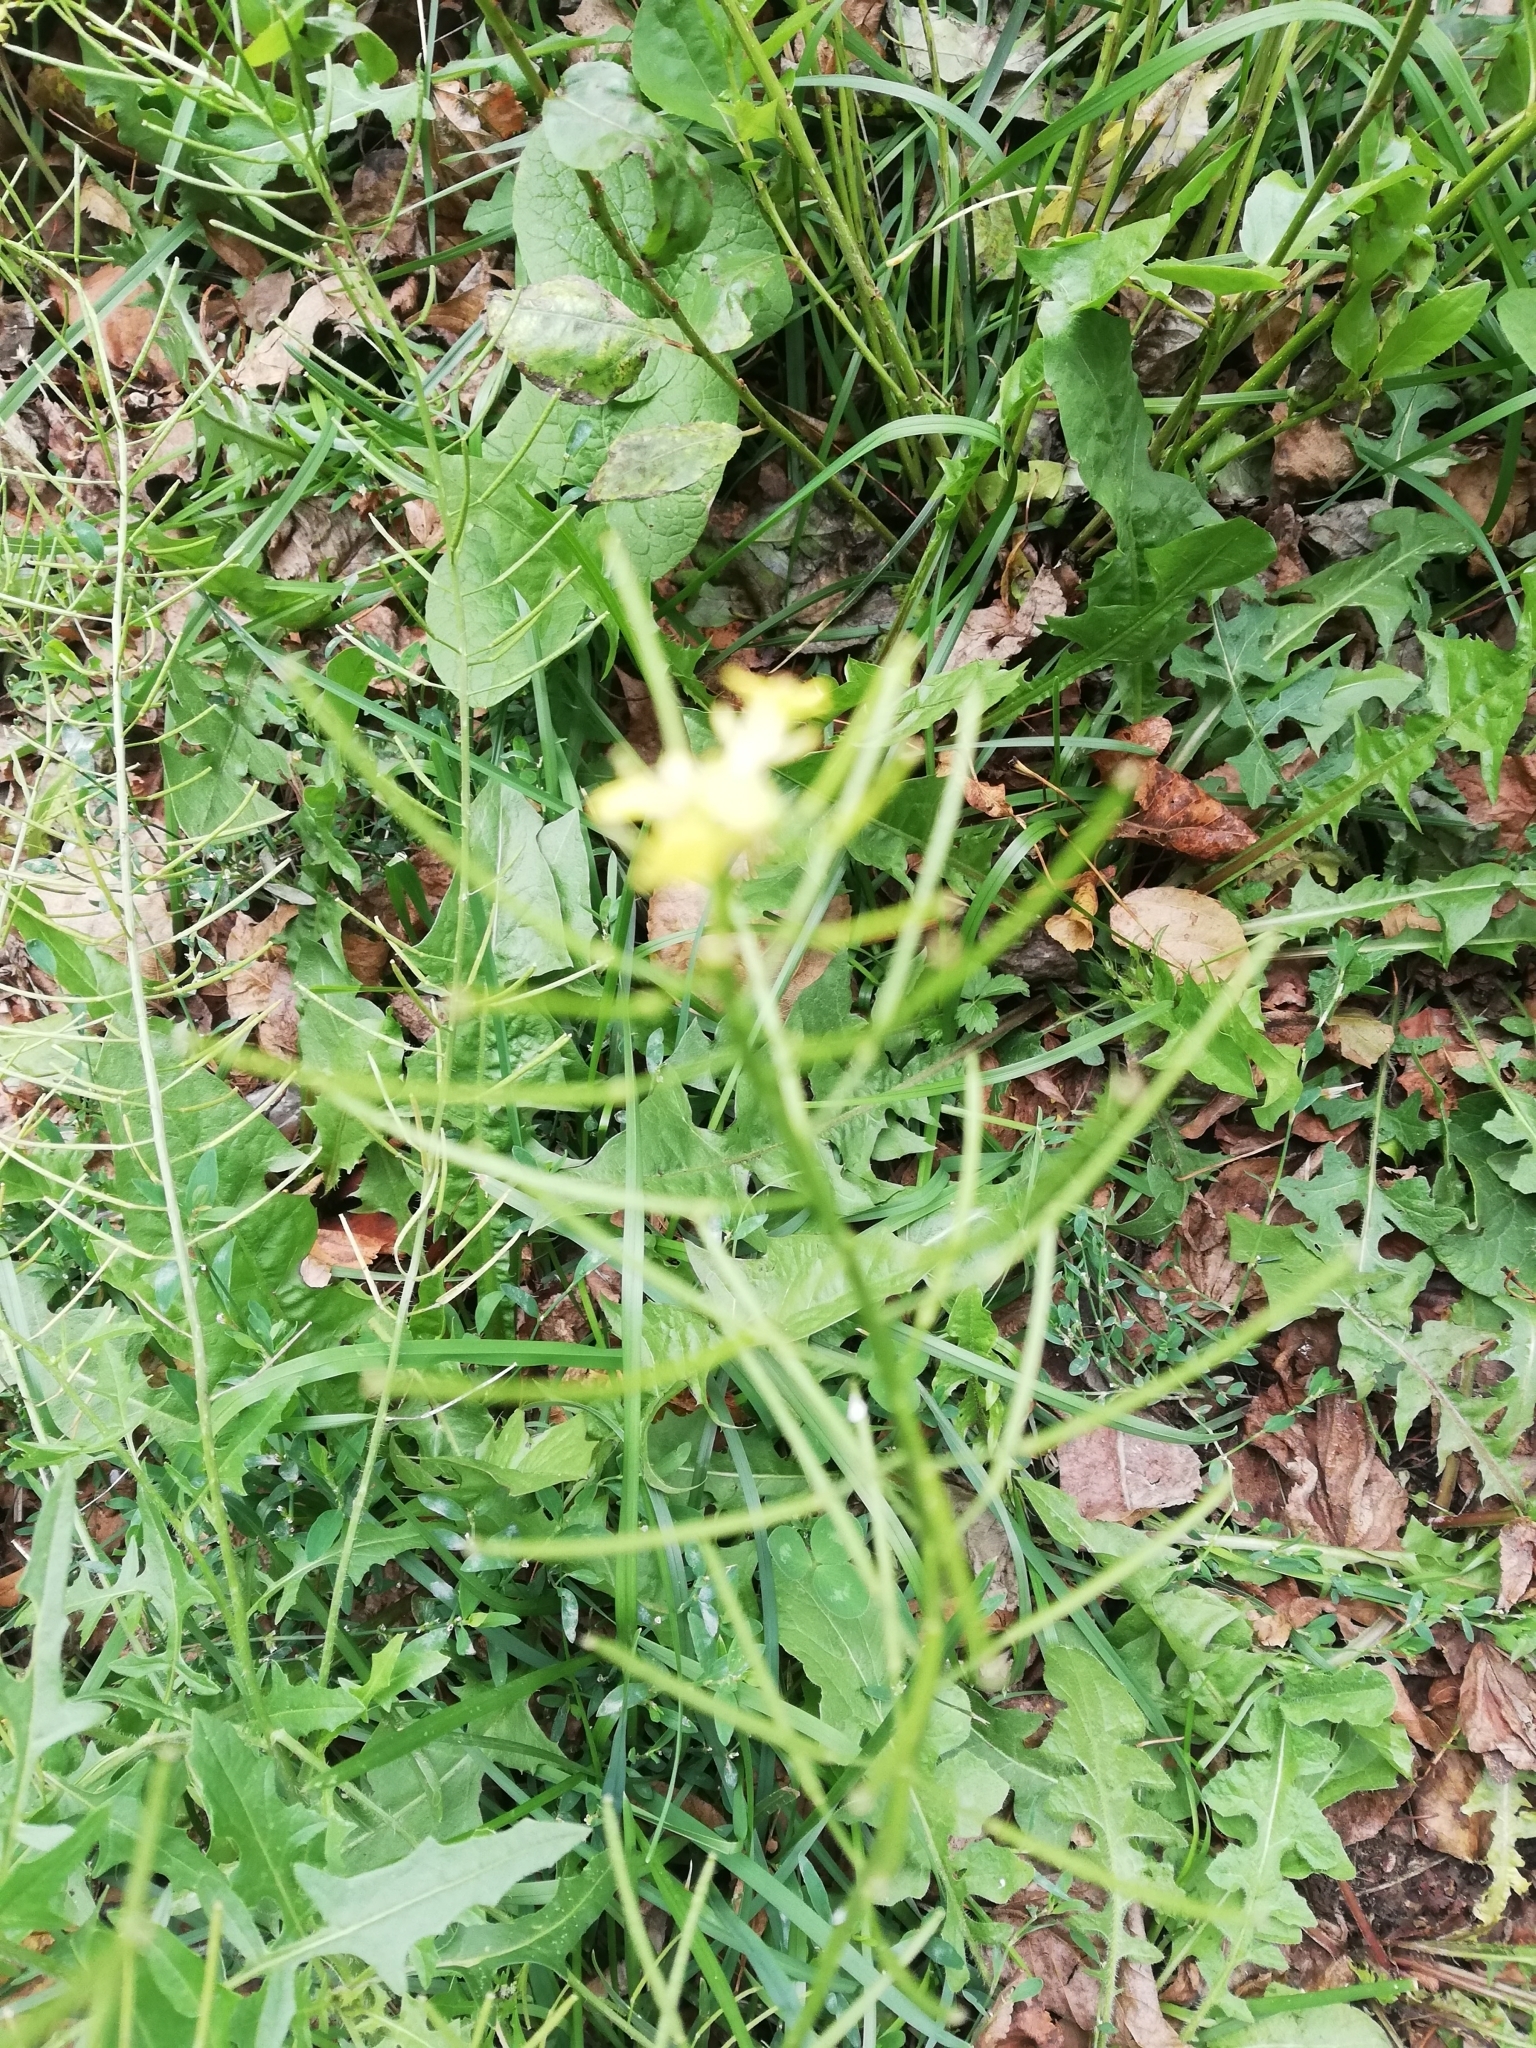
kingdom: Plantae
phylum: Tracheophyta
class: Magnoliopsida
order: Brassicales
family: Brassicaceae
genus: Sisymbrium
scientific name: Sisymbrium loeselii
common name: False london-rocket
